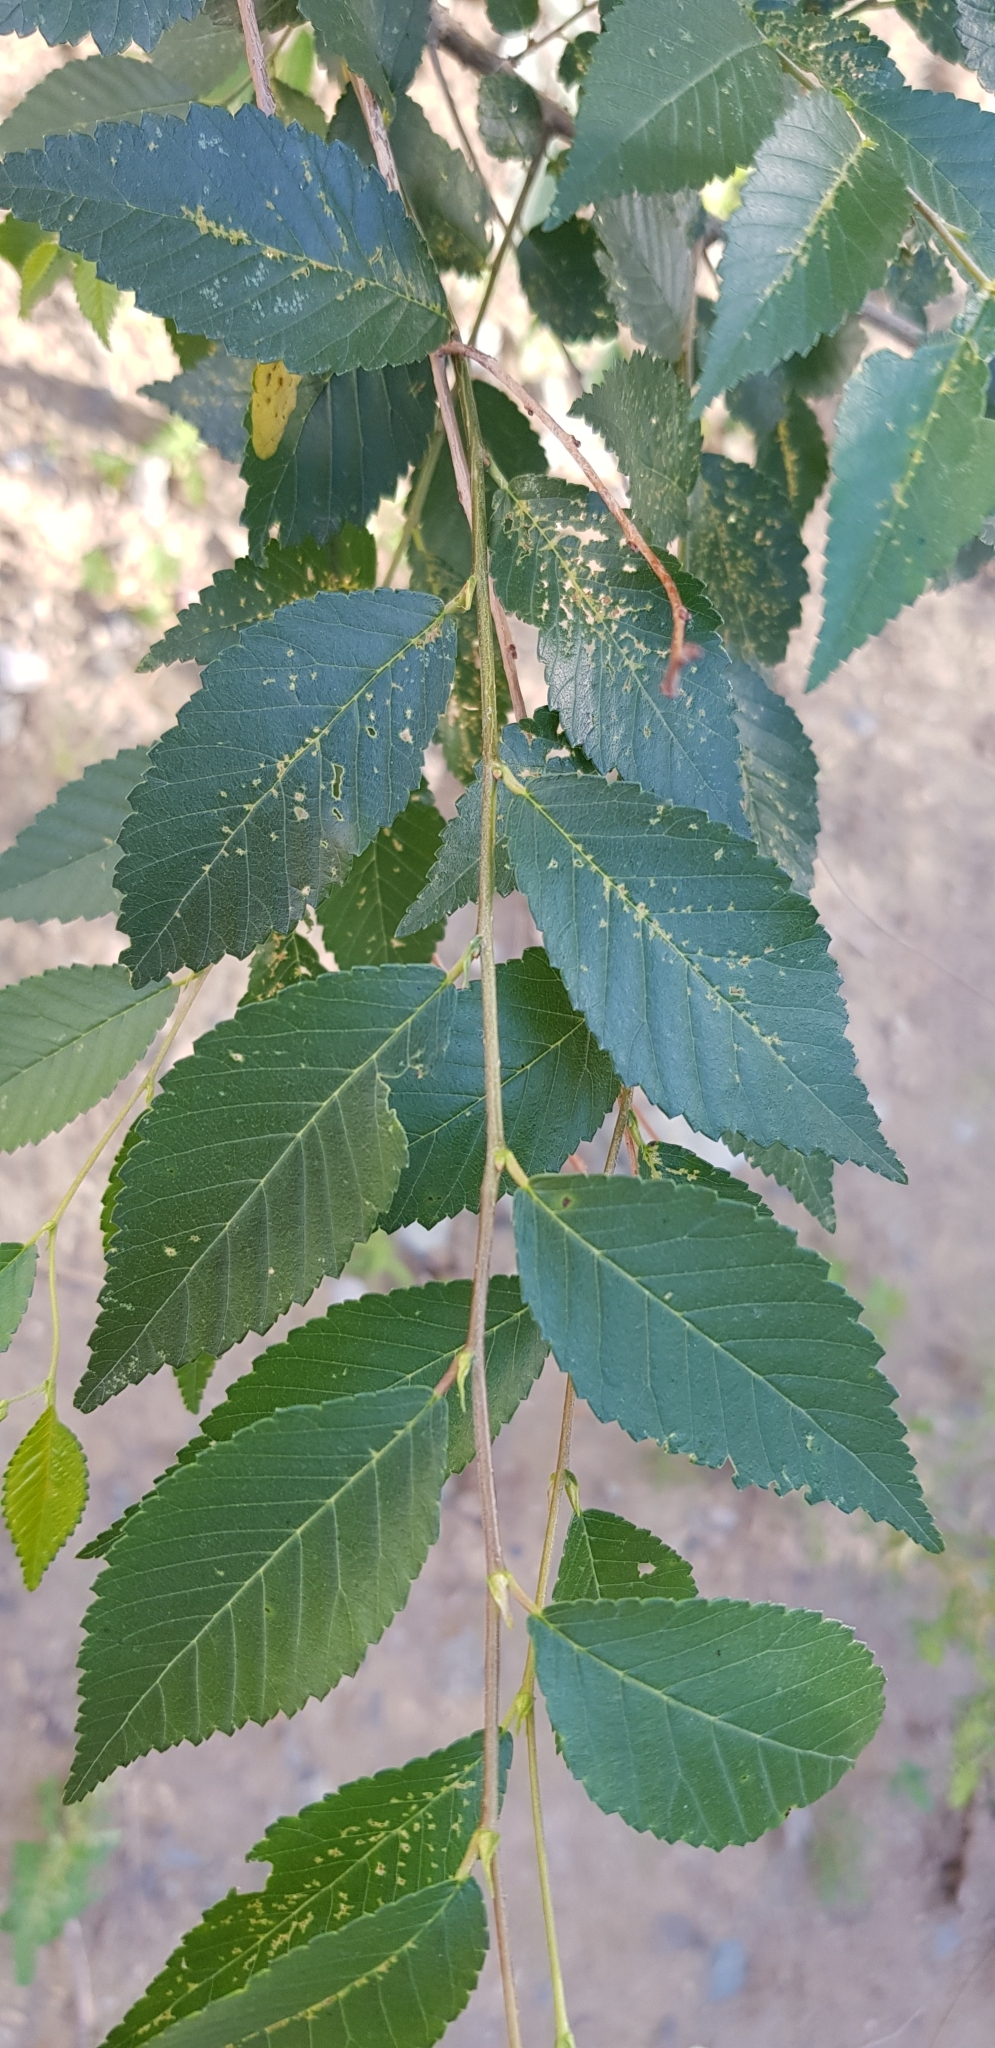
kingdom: Plantae
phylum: Tracheophyta
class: Magnoliopsida
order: Rosales
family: Ulmaceae
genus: Ulmus
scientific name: Ulmus pumila
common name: Siberian elm
